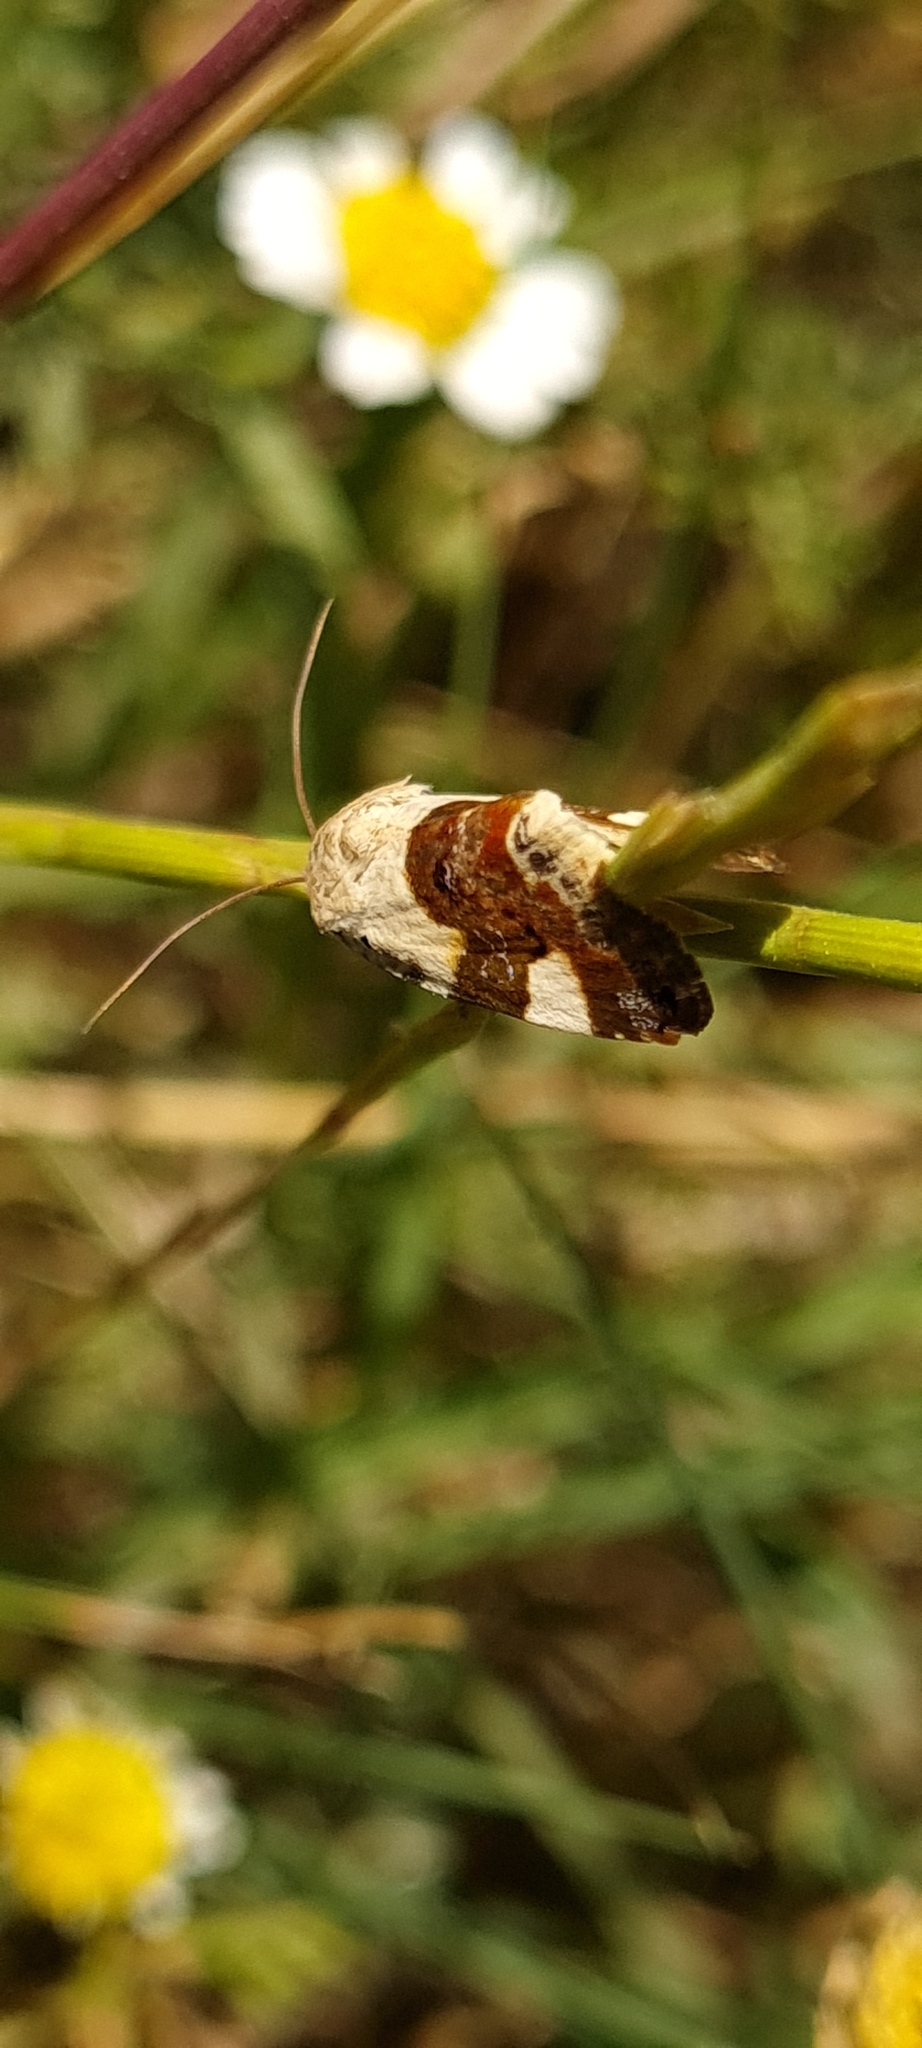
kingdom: Animalia
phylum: Arthropoda
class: Insecta
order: Lepidoptera
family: Noctuidae
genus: Acontia
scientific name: Acontia lucida
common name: Pale shoulder
